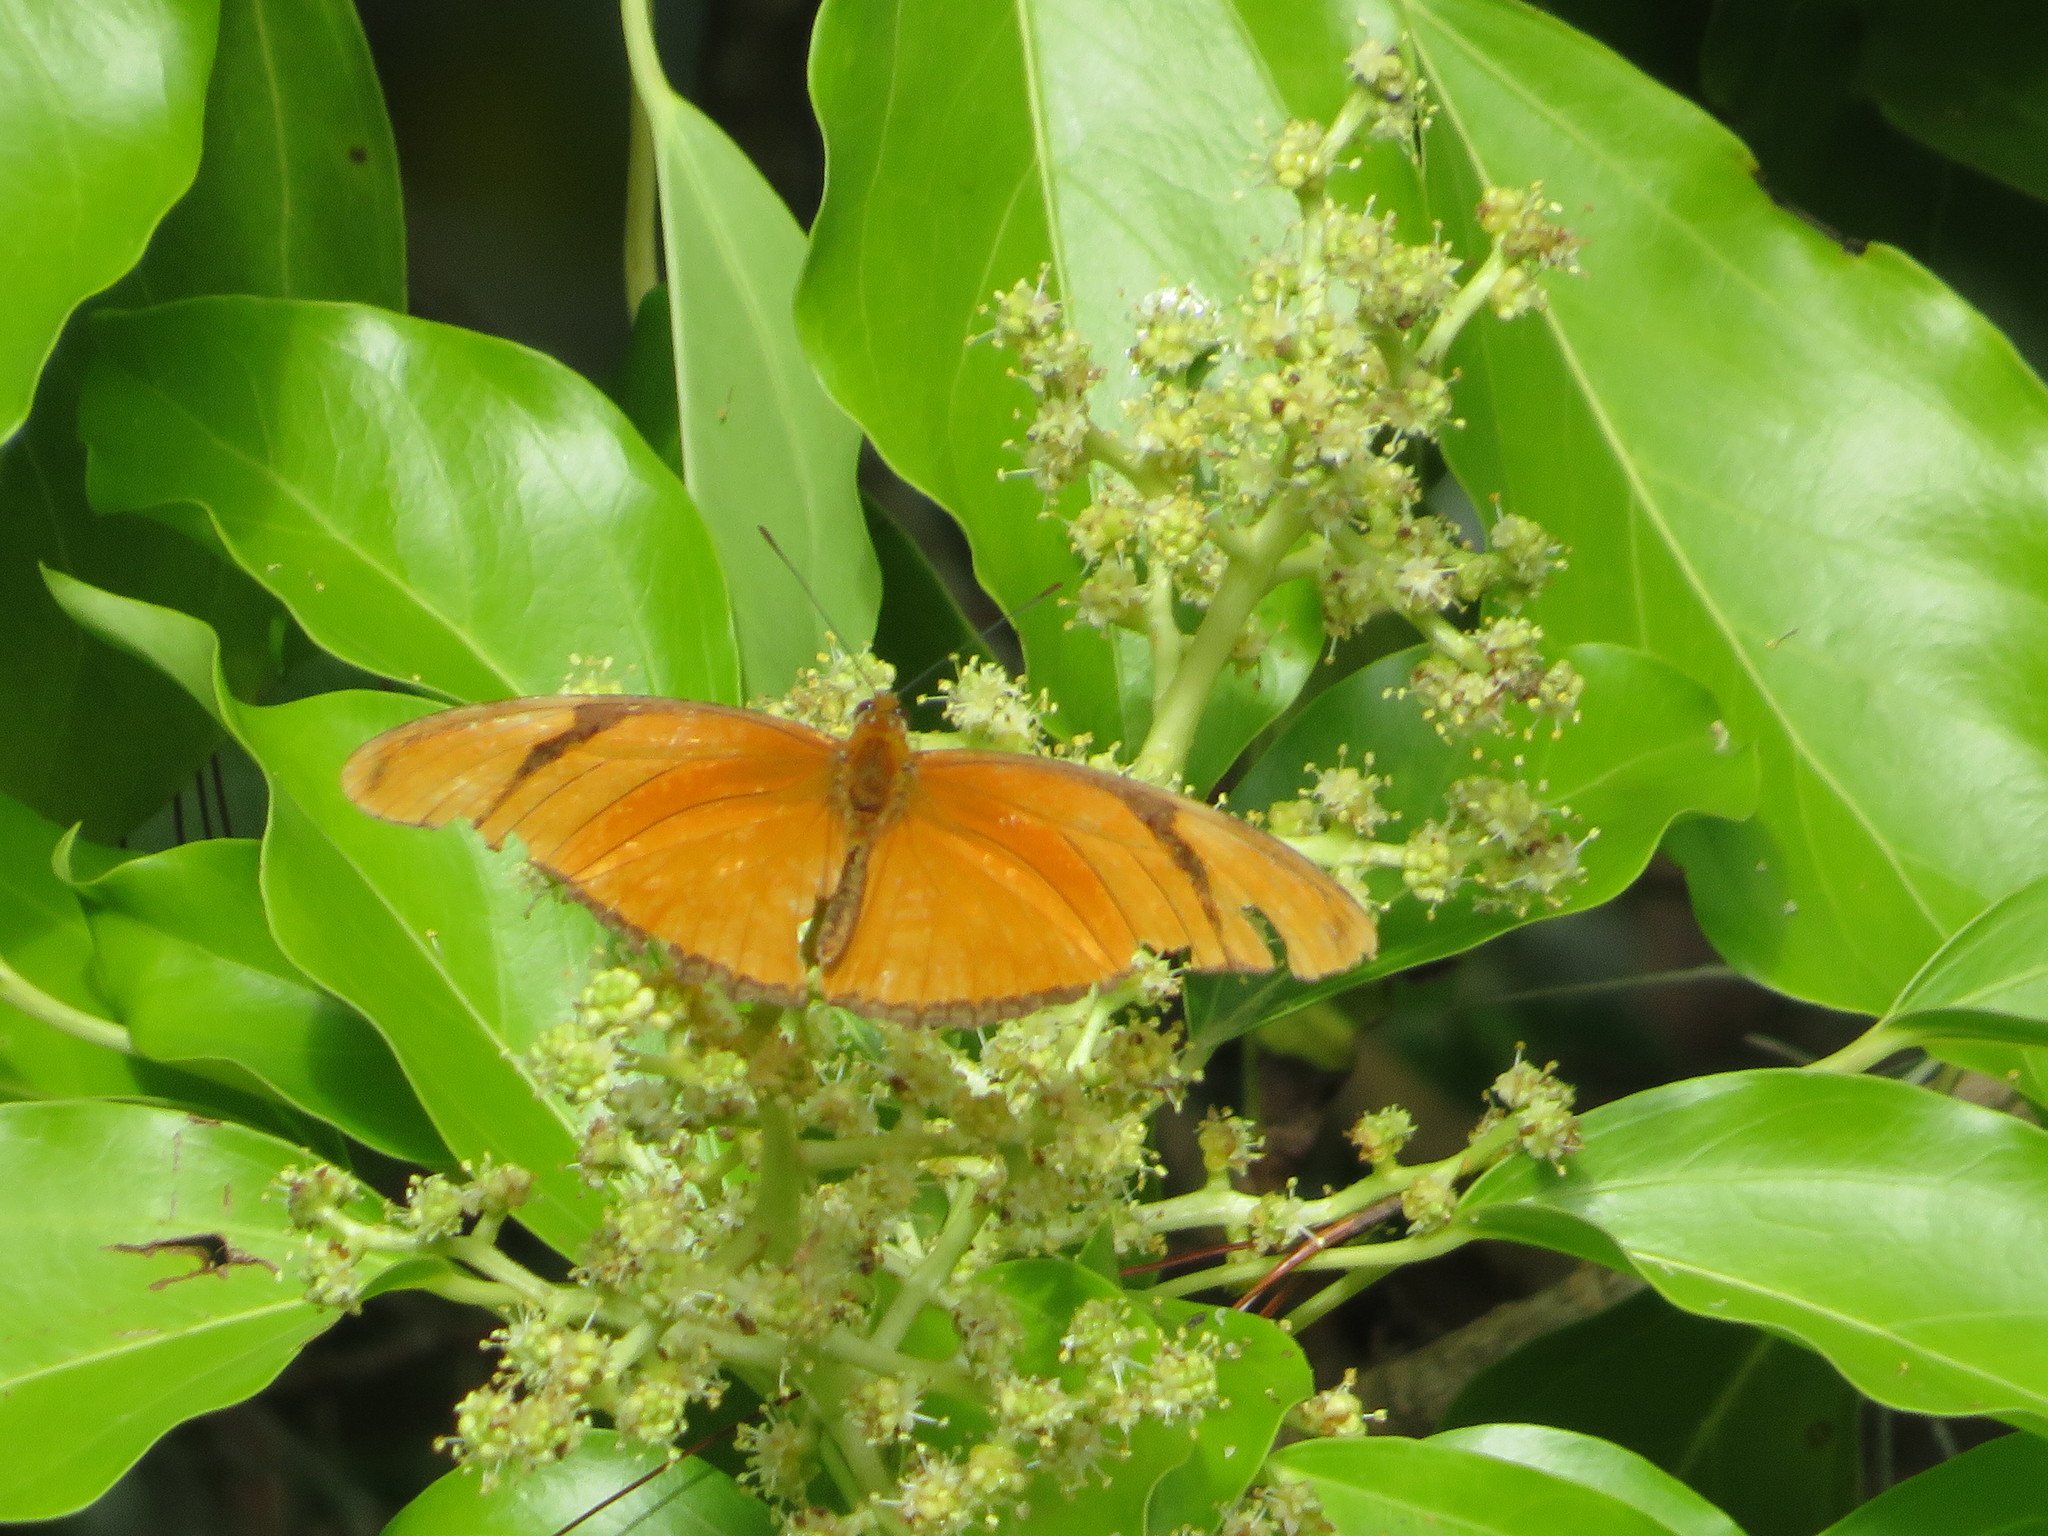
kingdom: Animalia
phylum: Arthropoda
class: Insecta
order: Lepidoptera
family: Nymphalidae
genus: Dryas
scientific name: Dryas iulia
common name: Flambeau
